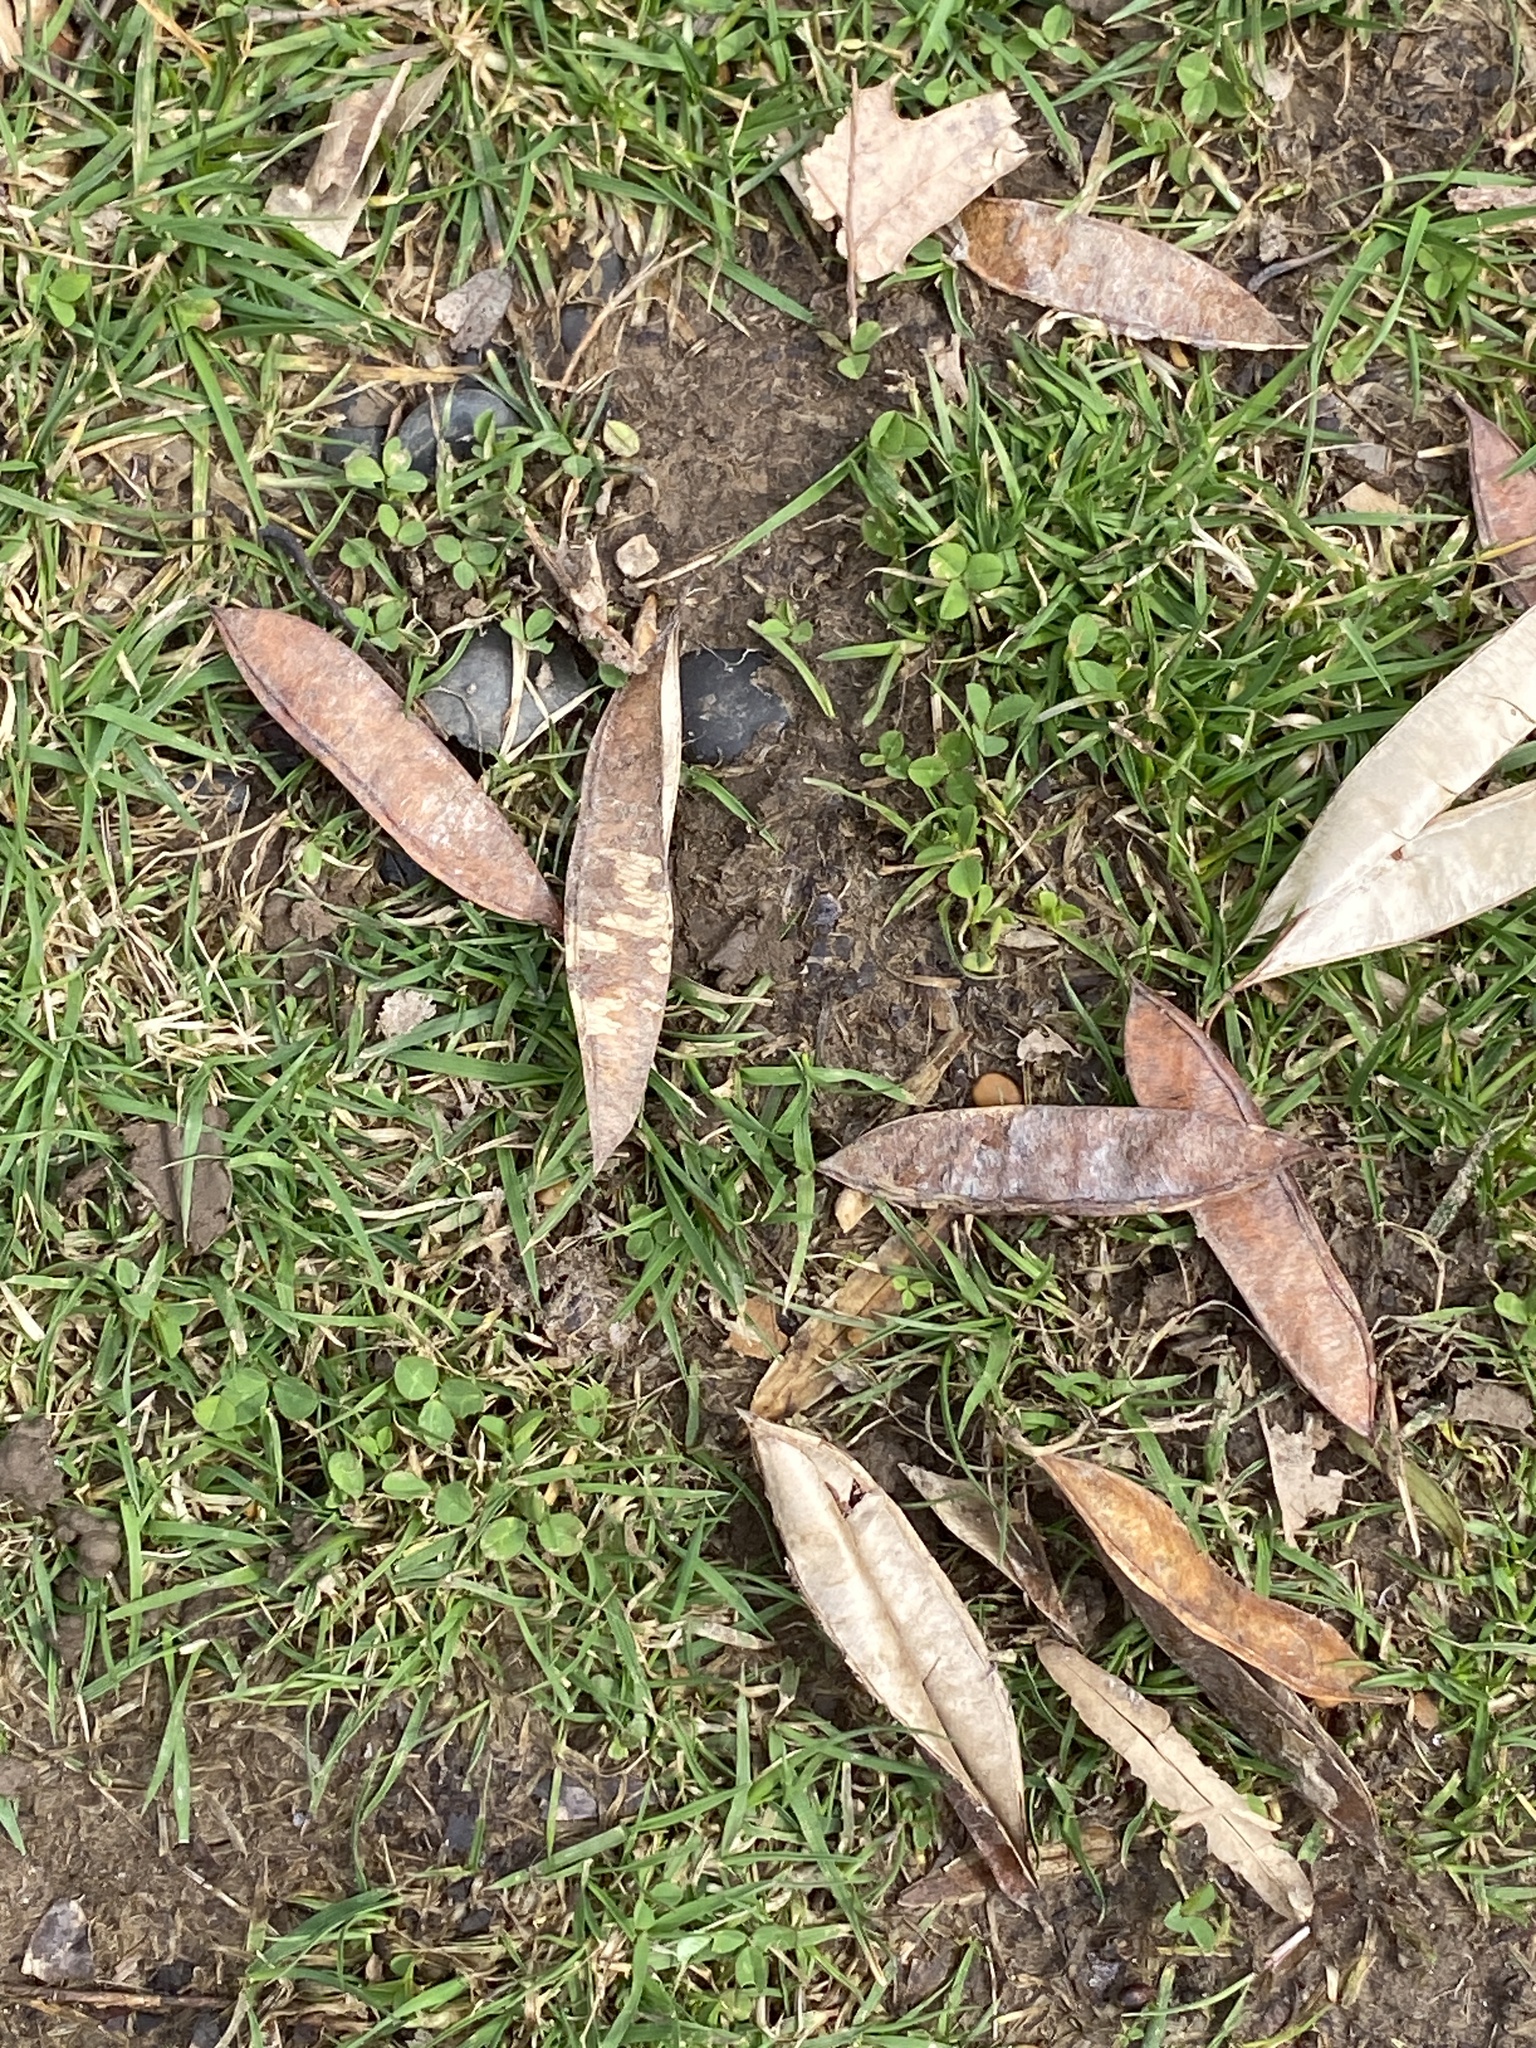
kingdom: Plantae
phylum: Tracheophyta
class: Magnoliopsida
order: Fabales
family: Fabaceae
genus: Robinia
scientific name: Robinia pseudoacacia
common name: Black locust
